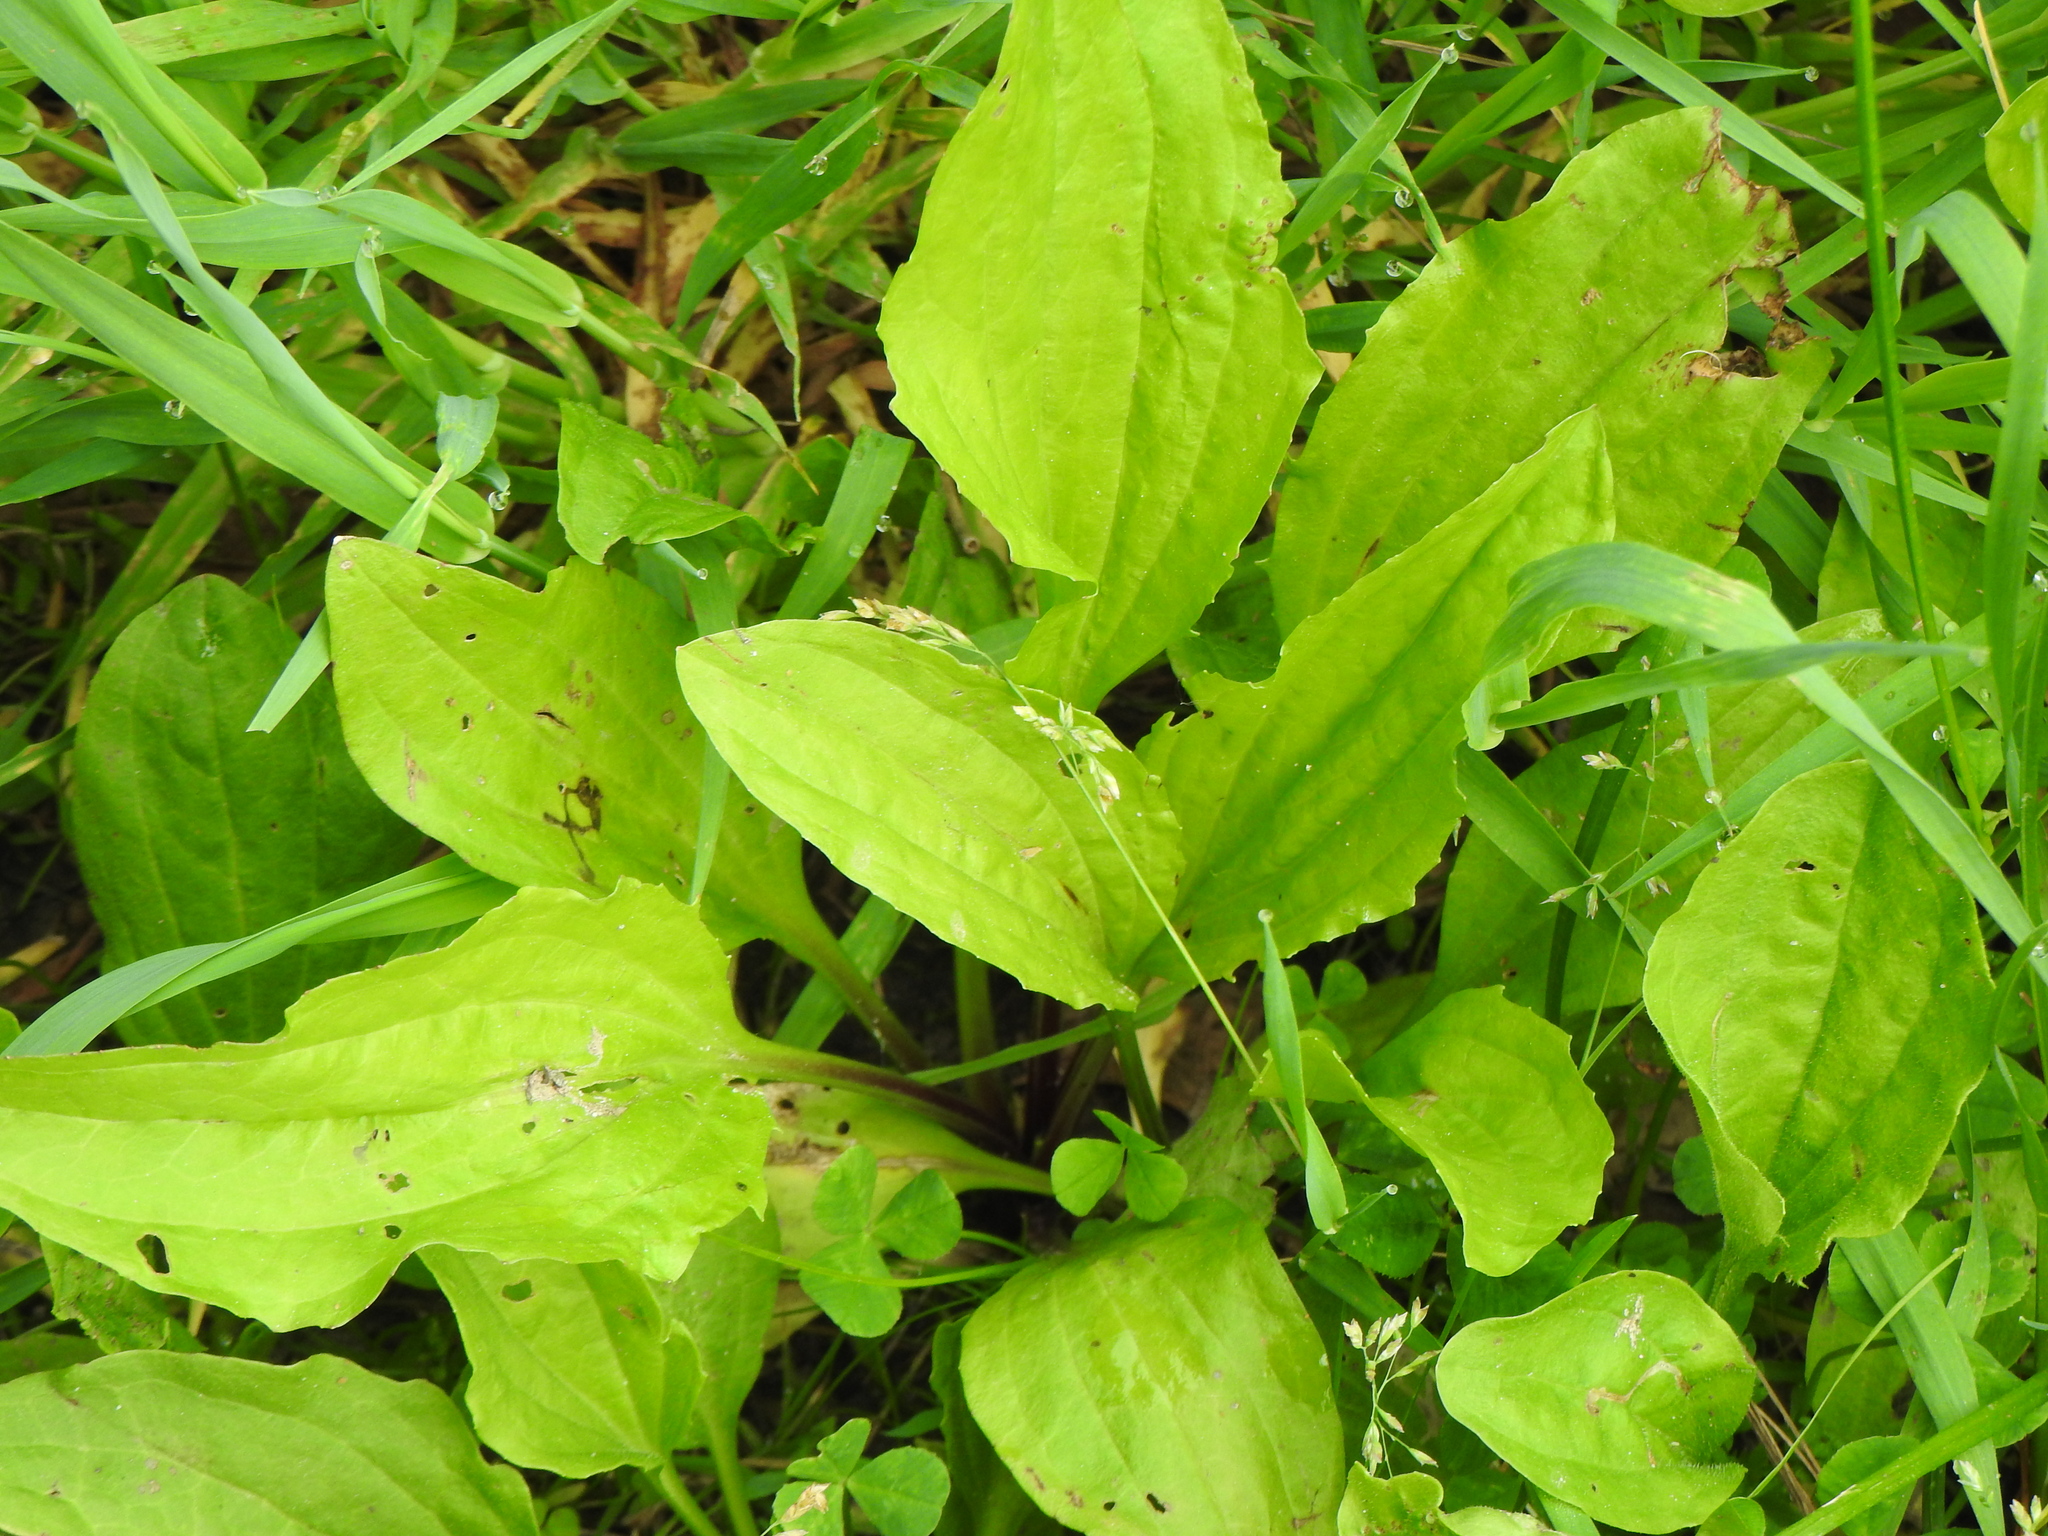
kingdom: Plantae
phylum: Tracheophyta
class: Magnoliopsida
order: Lamiales
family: Plantaginaceae
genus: Plantago
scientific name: Plantago rugelii
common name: American plantain
